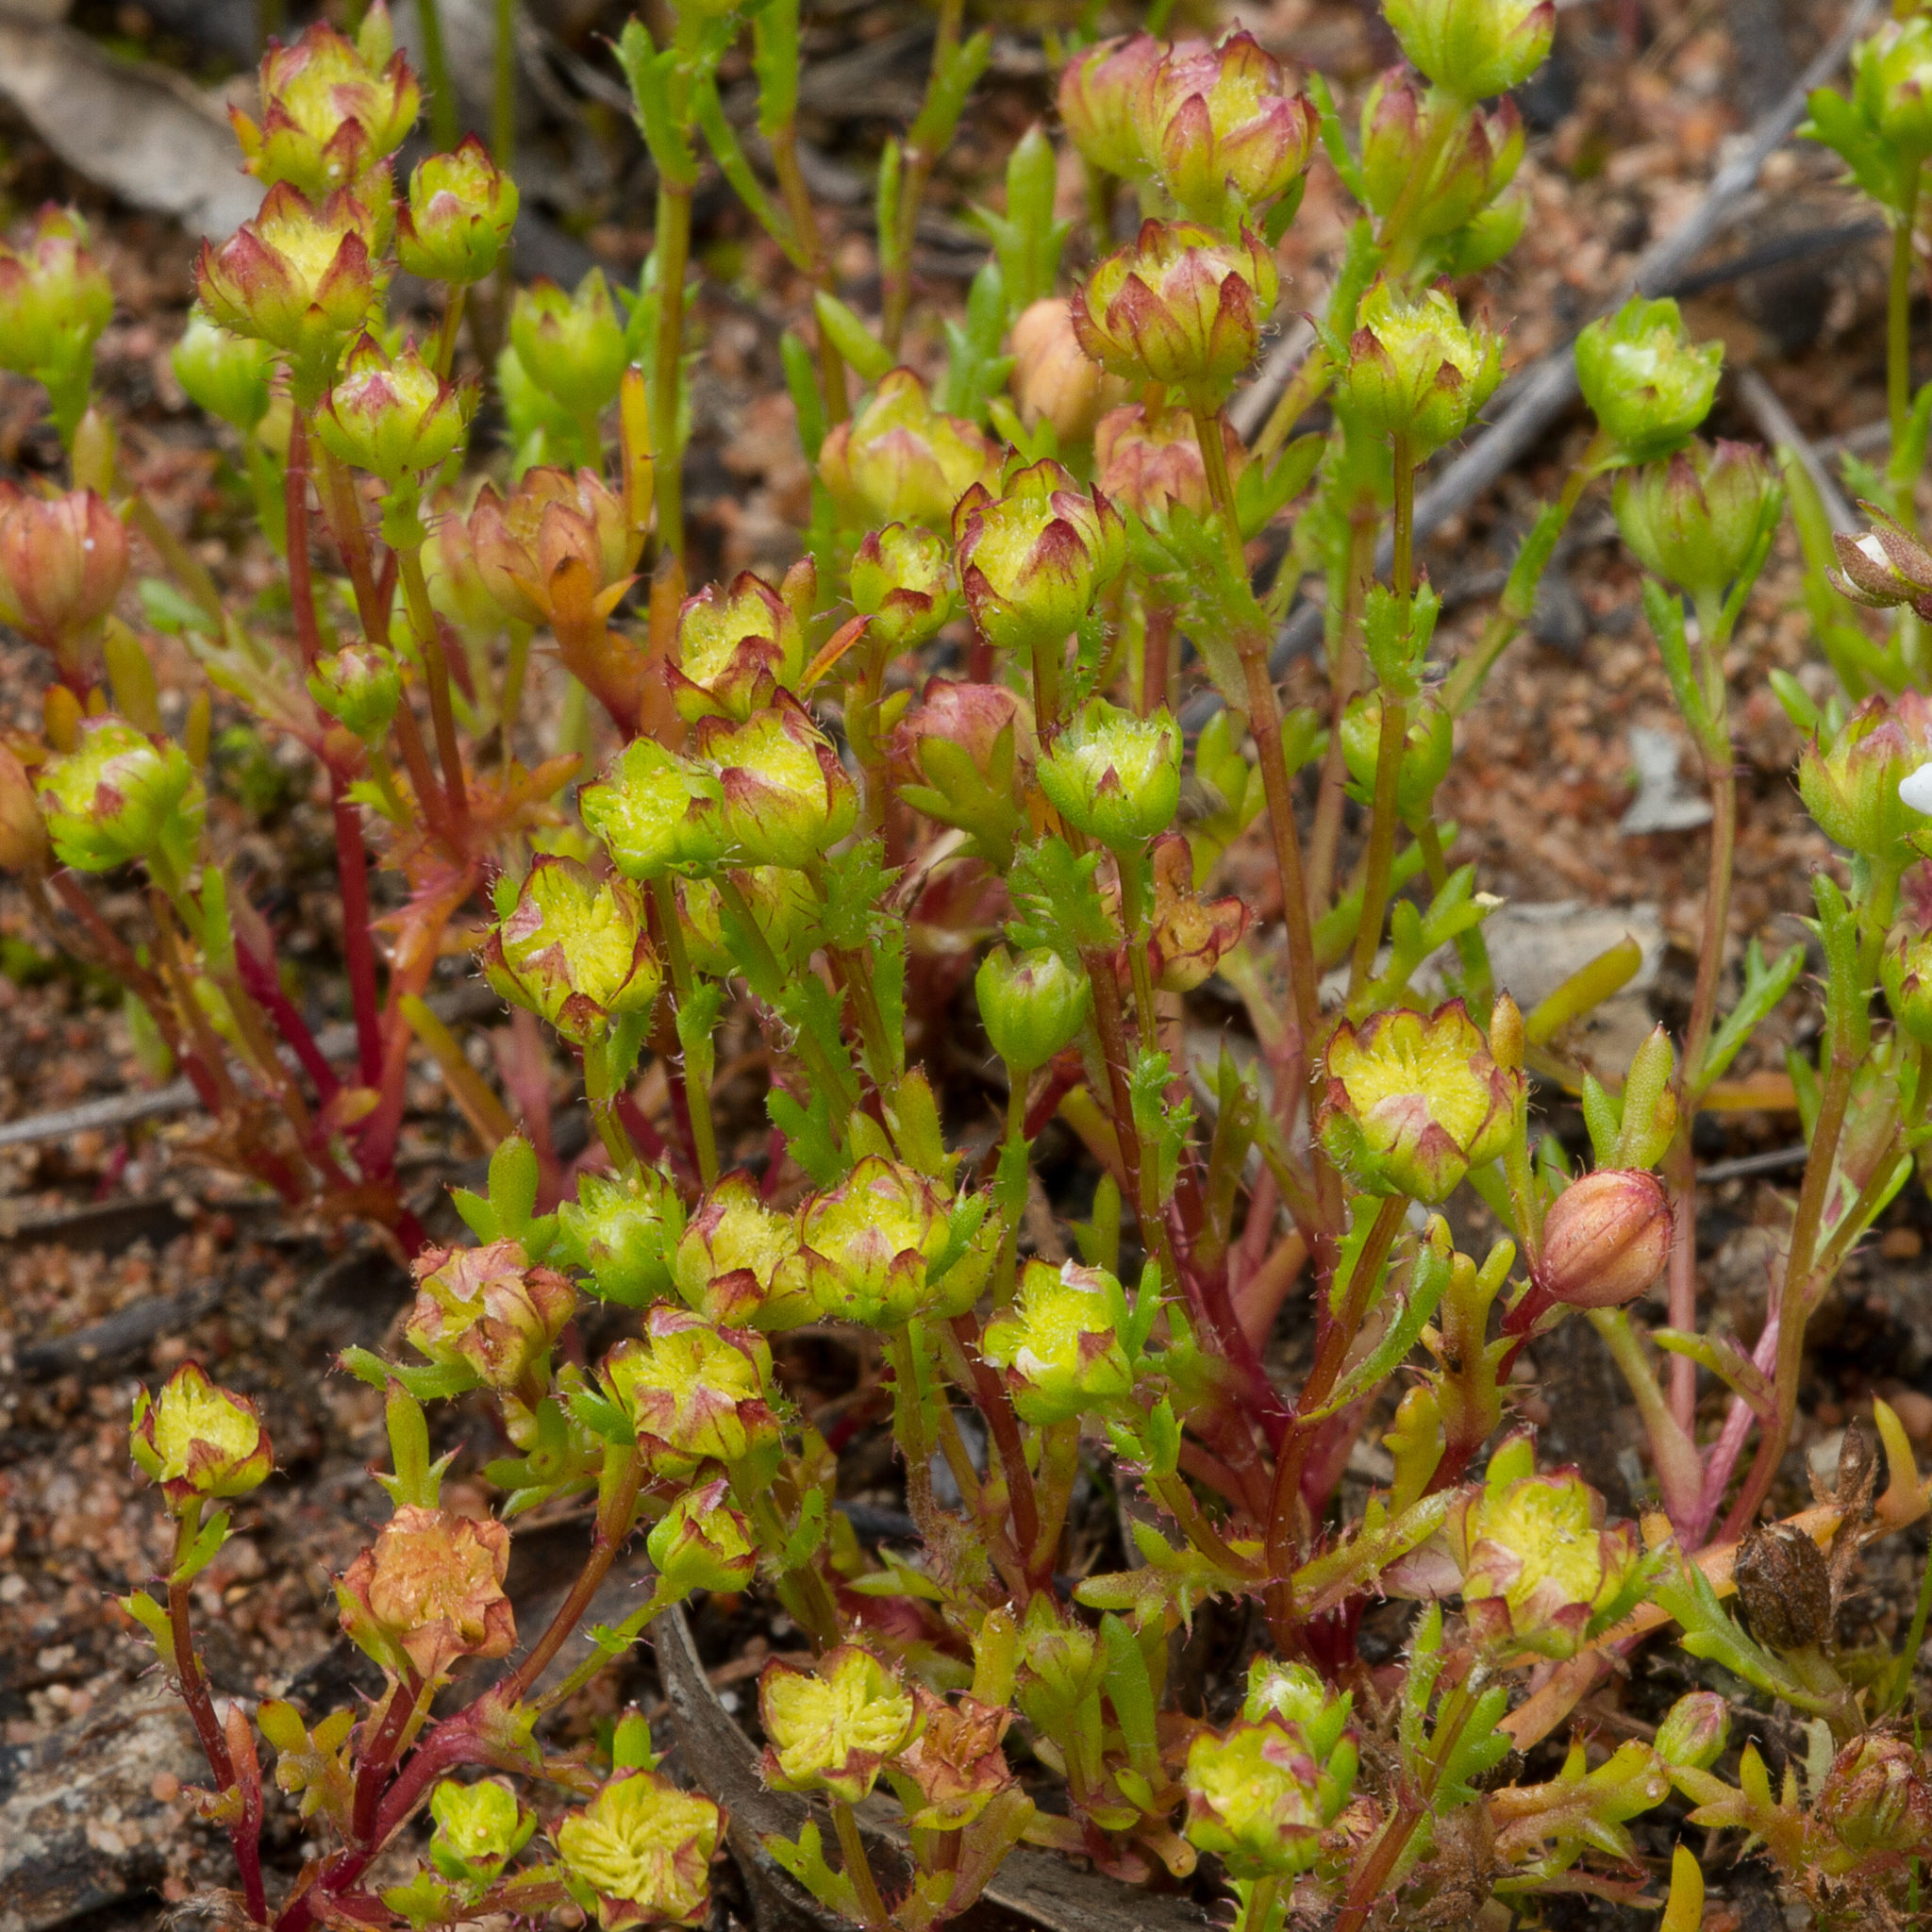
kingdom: Plantae
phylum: Tracheophyta
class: Magnoliopsida
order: Asterales
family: Asteraceae
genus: Brachyscome
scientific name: Brachyscome perpusilla
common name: Tiny daisy
